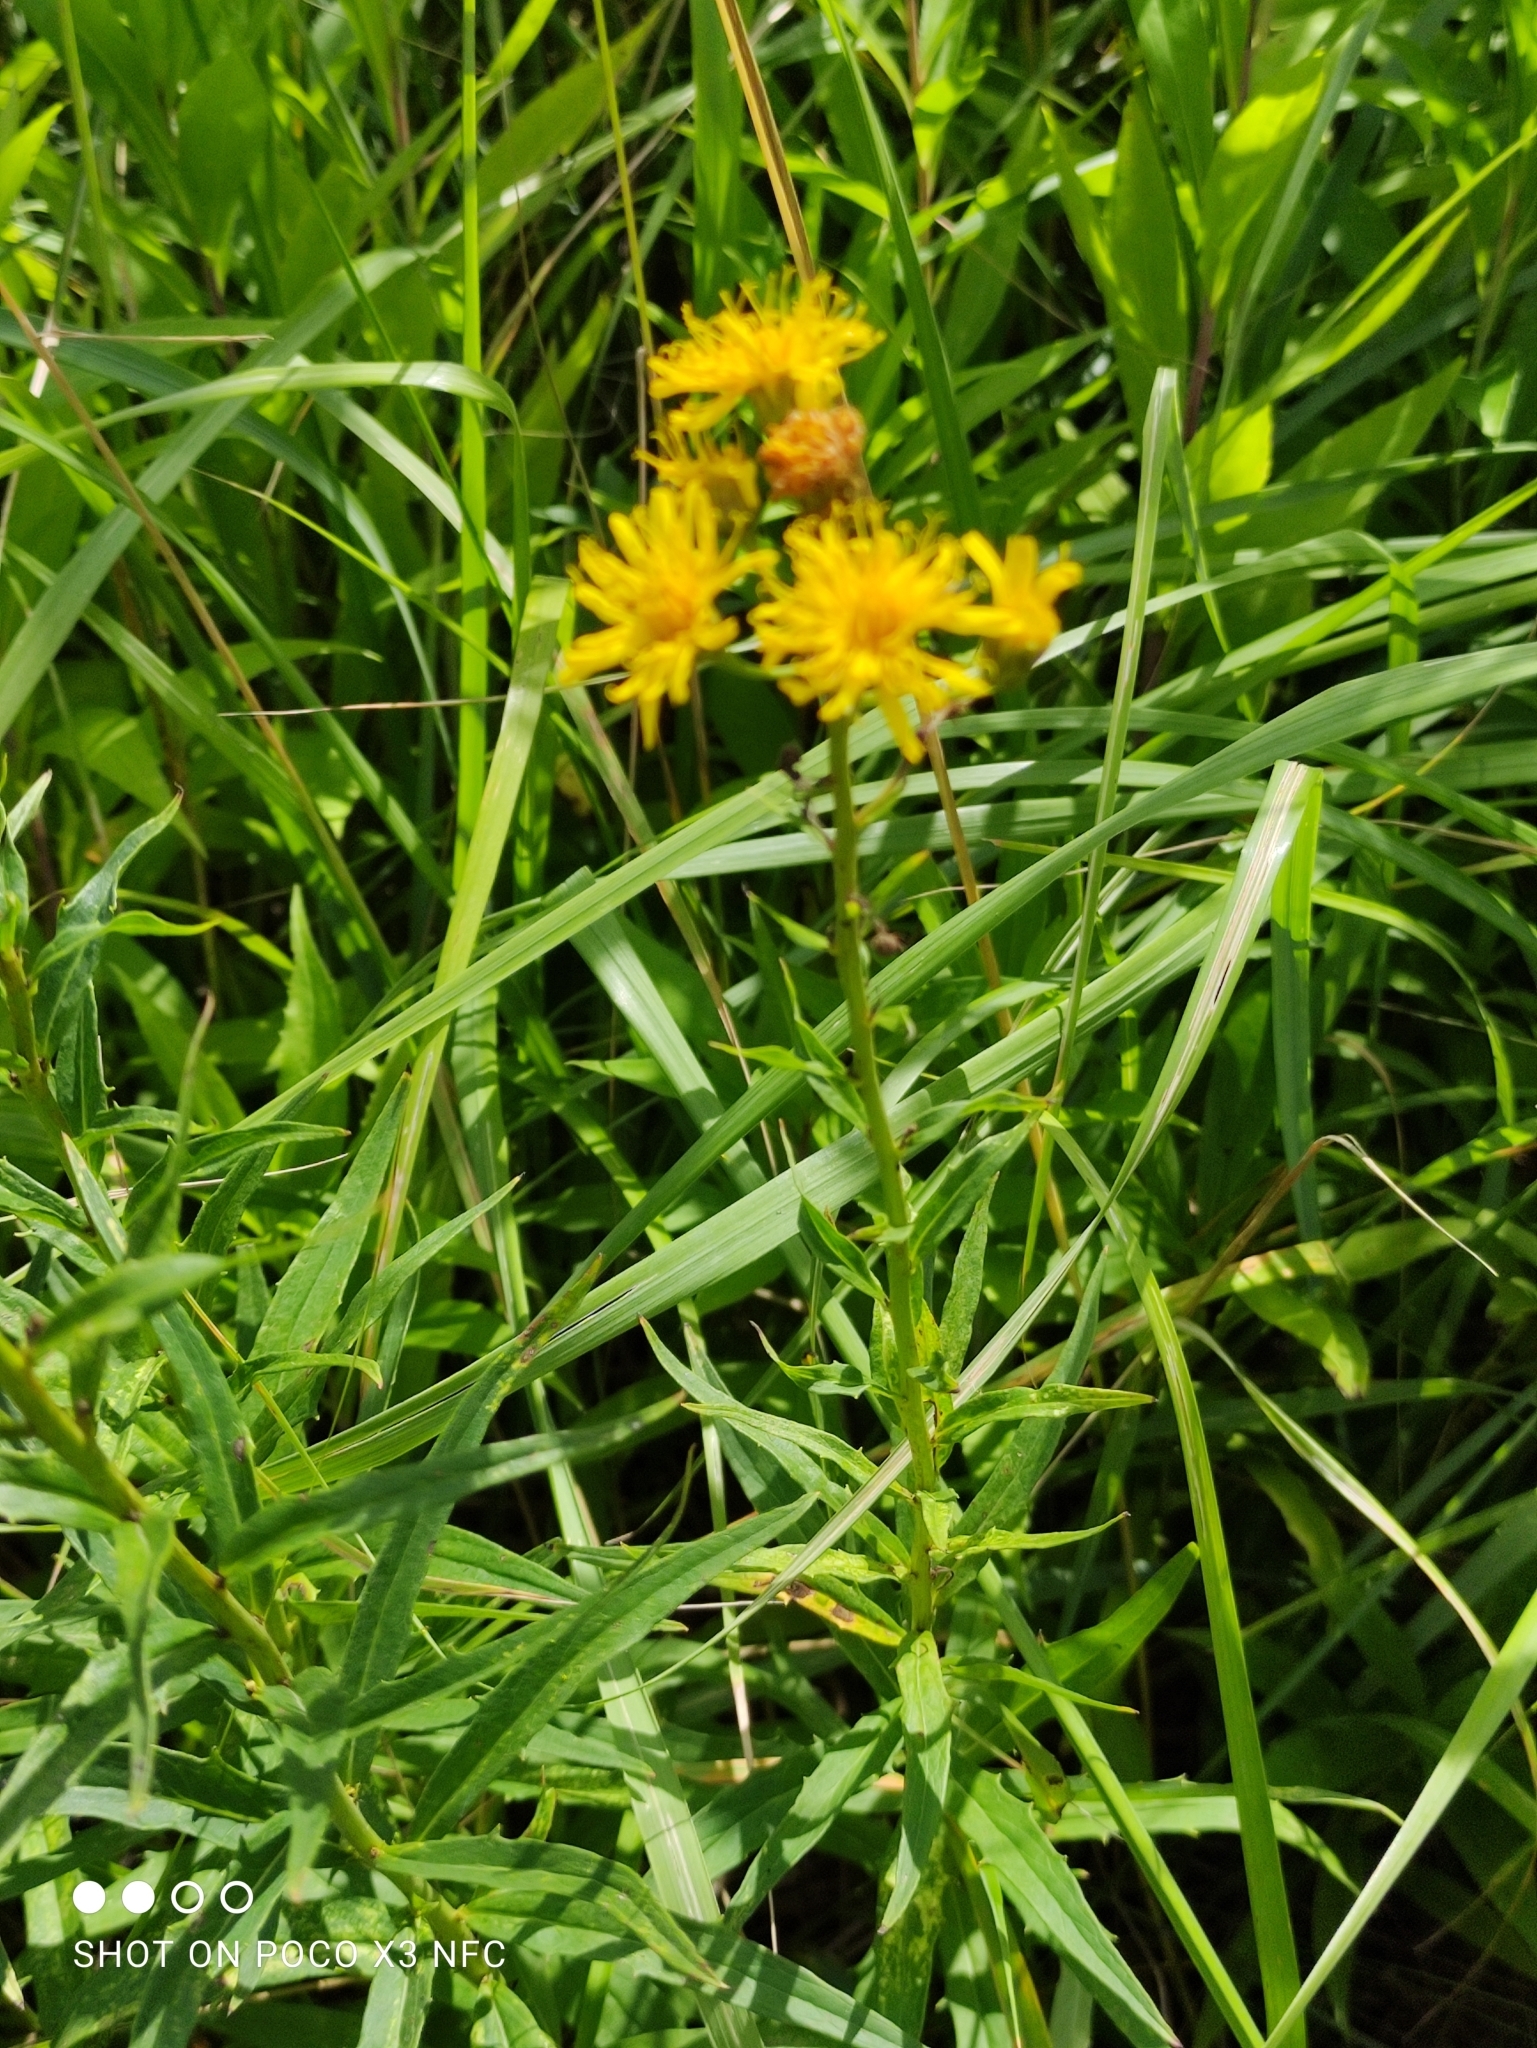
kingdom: Plantae
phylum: Tracheophyta
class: Magnoliopsida
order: Asterales
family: Asteraceae
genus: Hieracium
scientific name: Hieracium umbellatum
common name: Northern hawkweed
